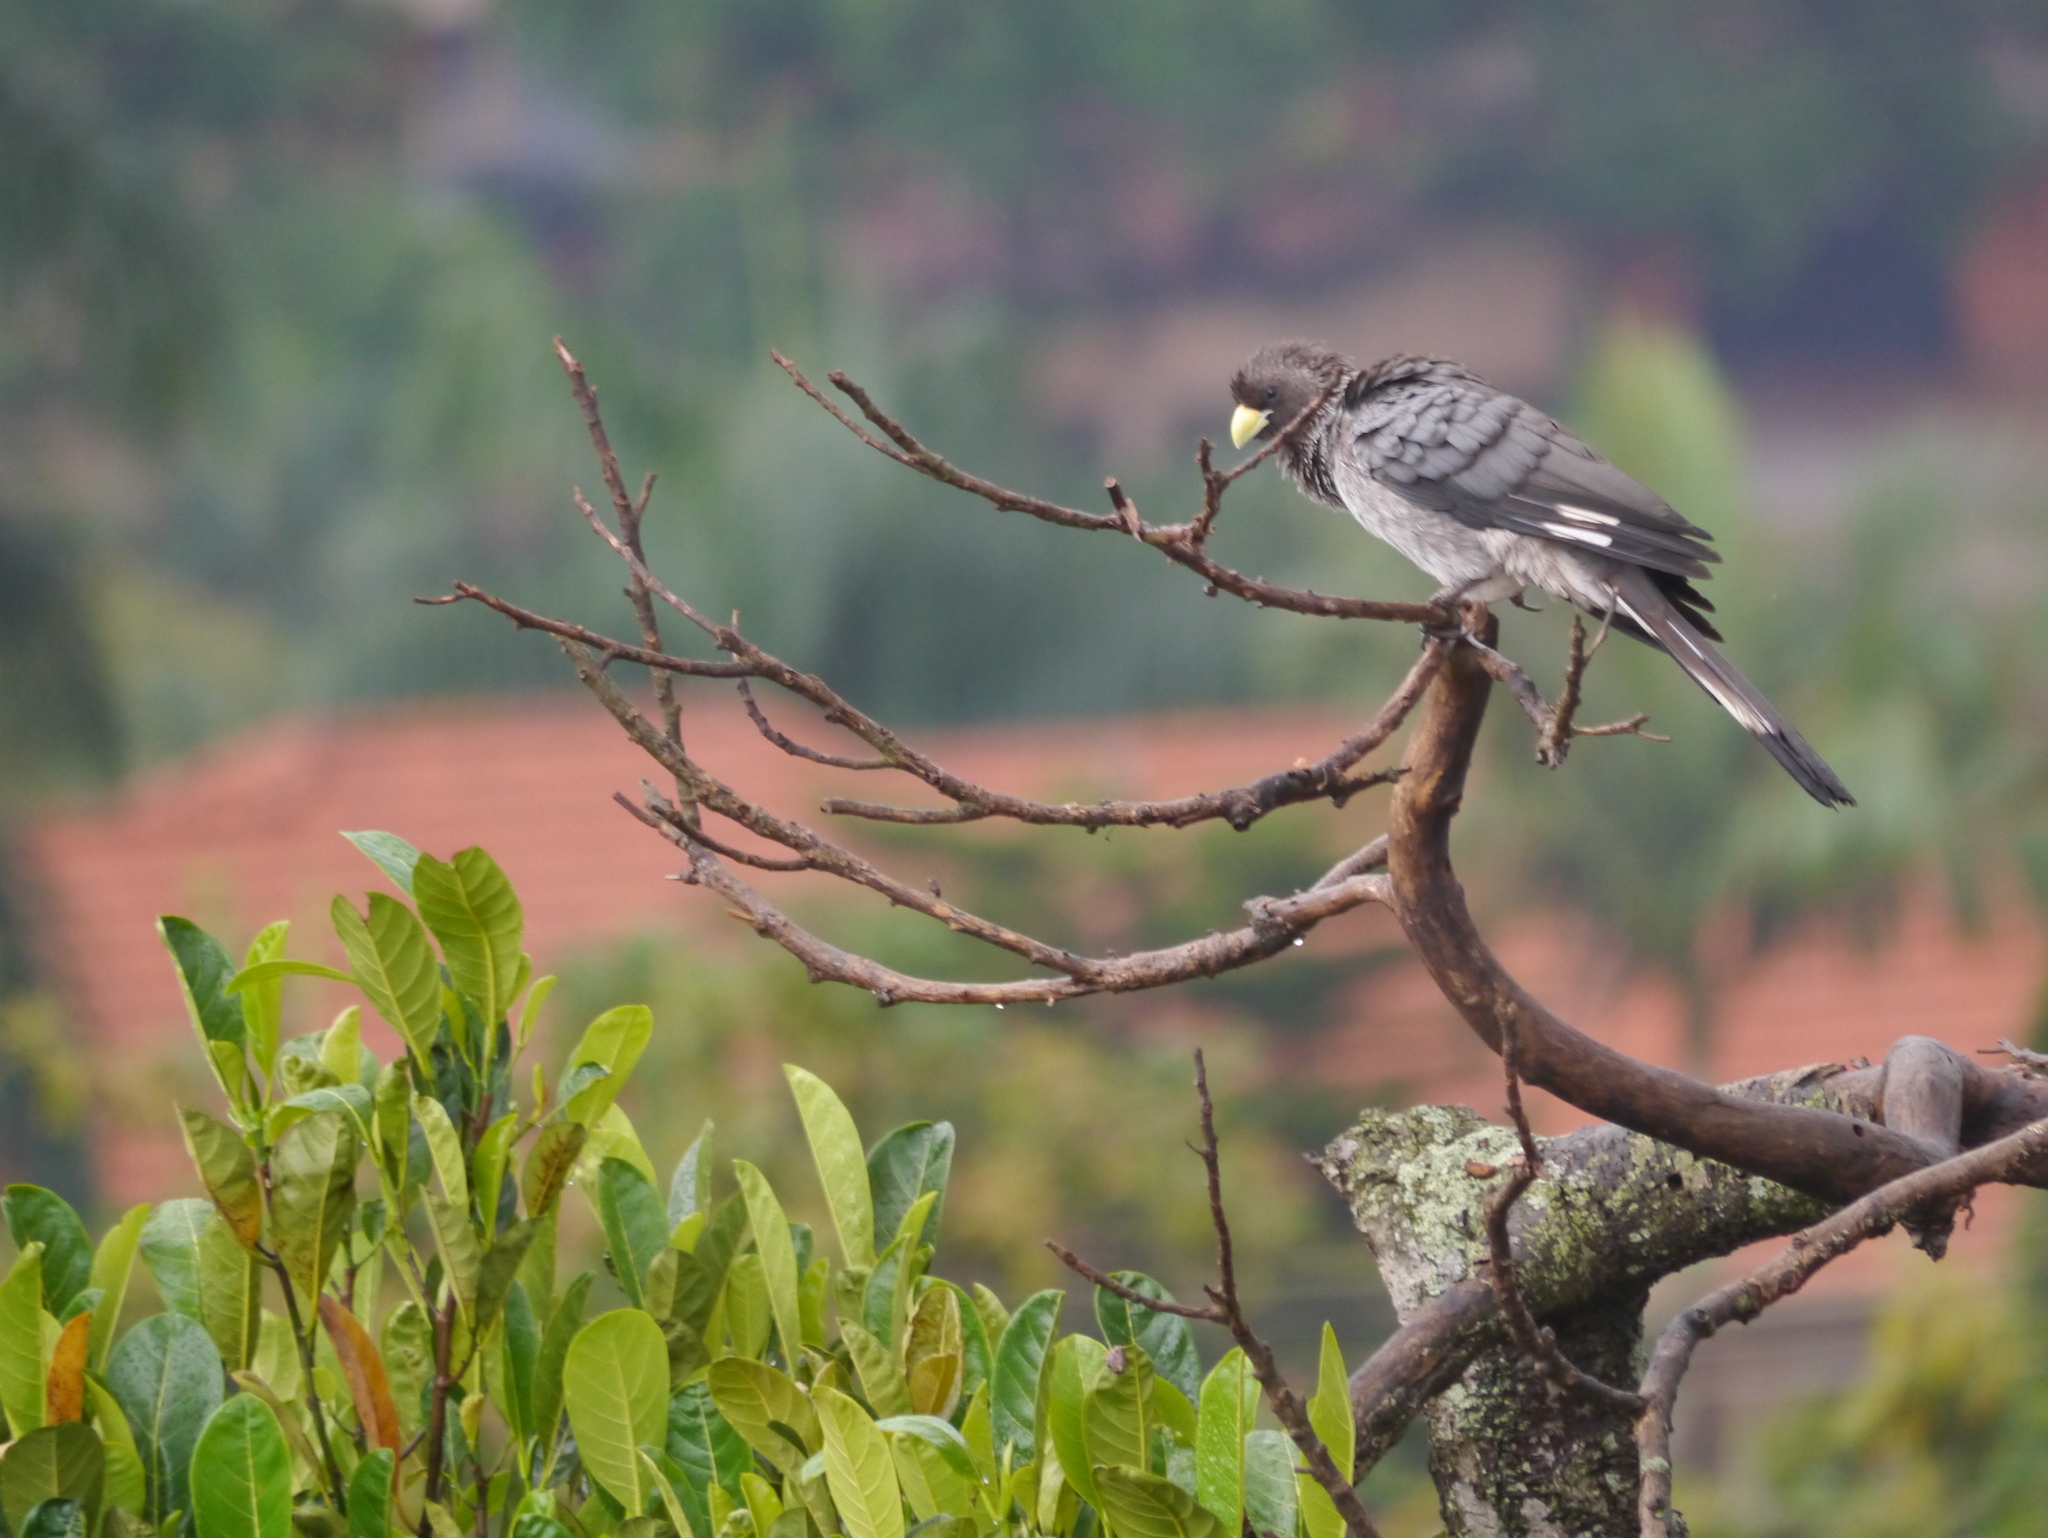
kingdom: Animalia
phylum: Chordata
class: Aves
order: Musophagiformes
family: Musophagidae
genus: Crinifer
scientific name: Crinifer zonurus
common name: Eastern plantain-eater
